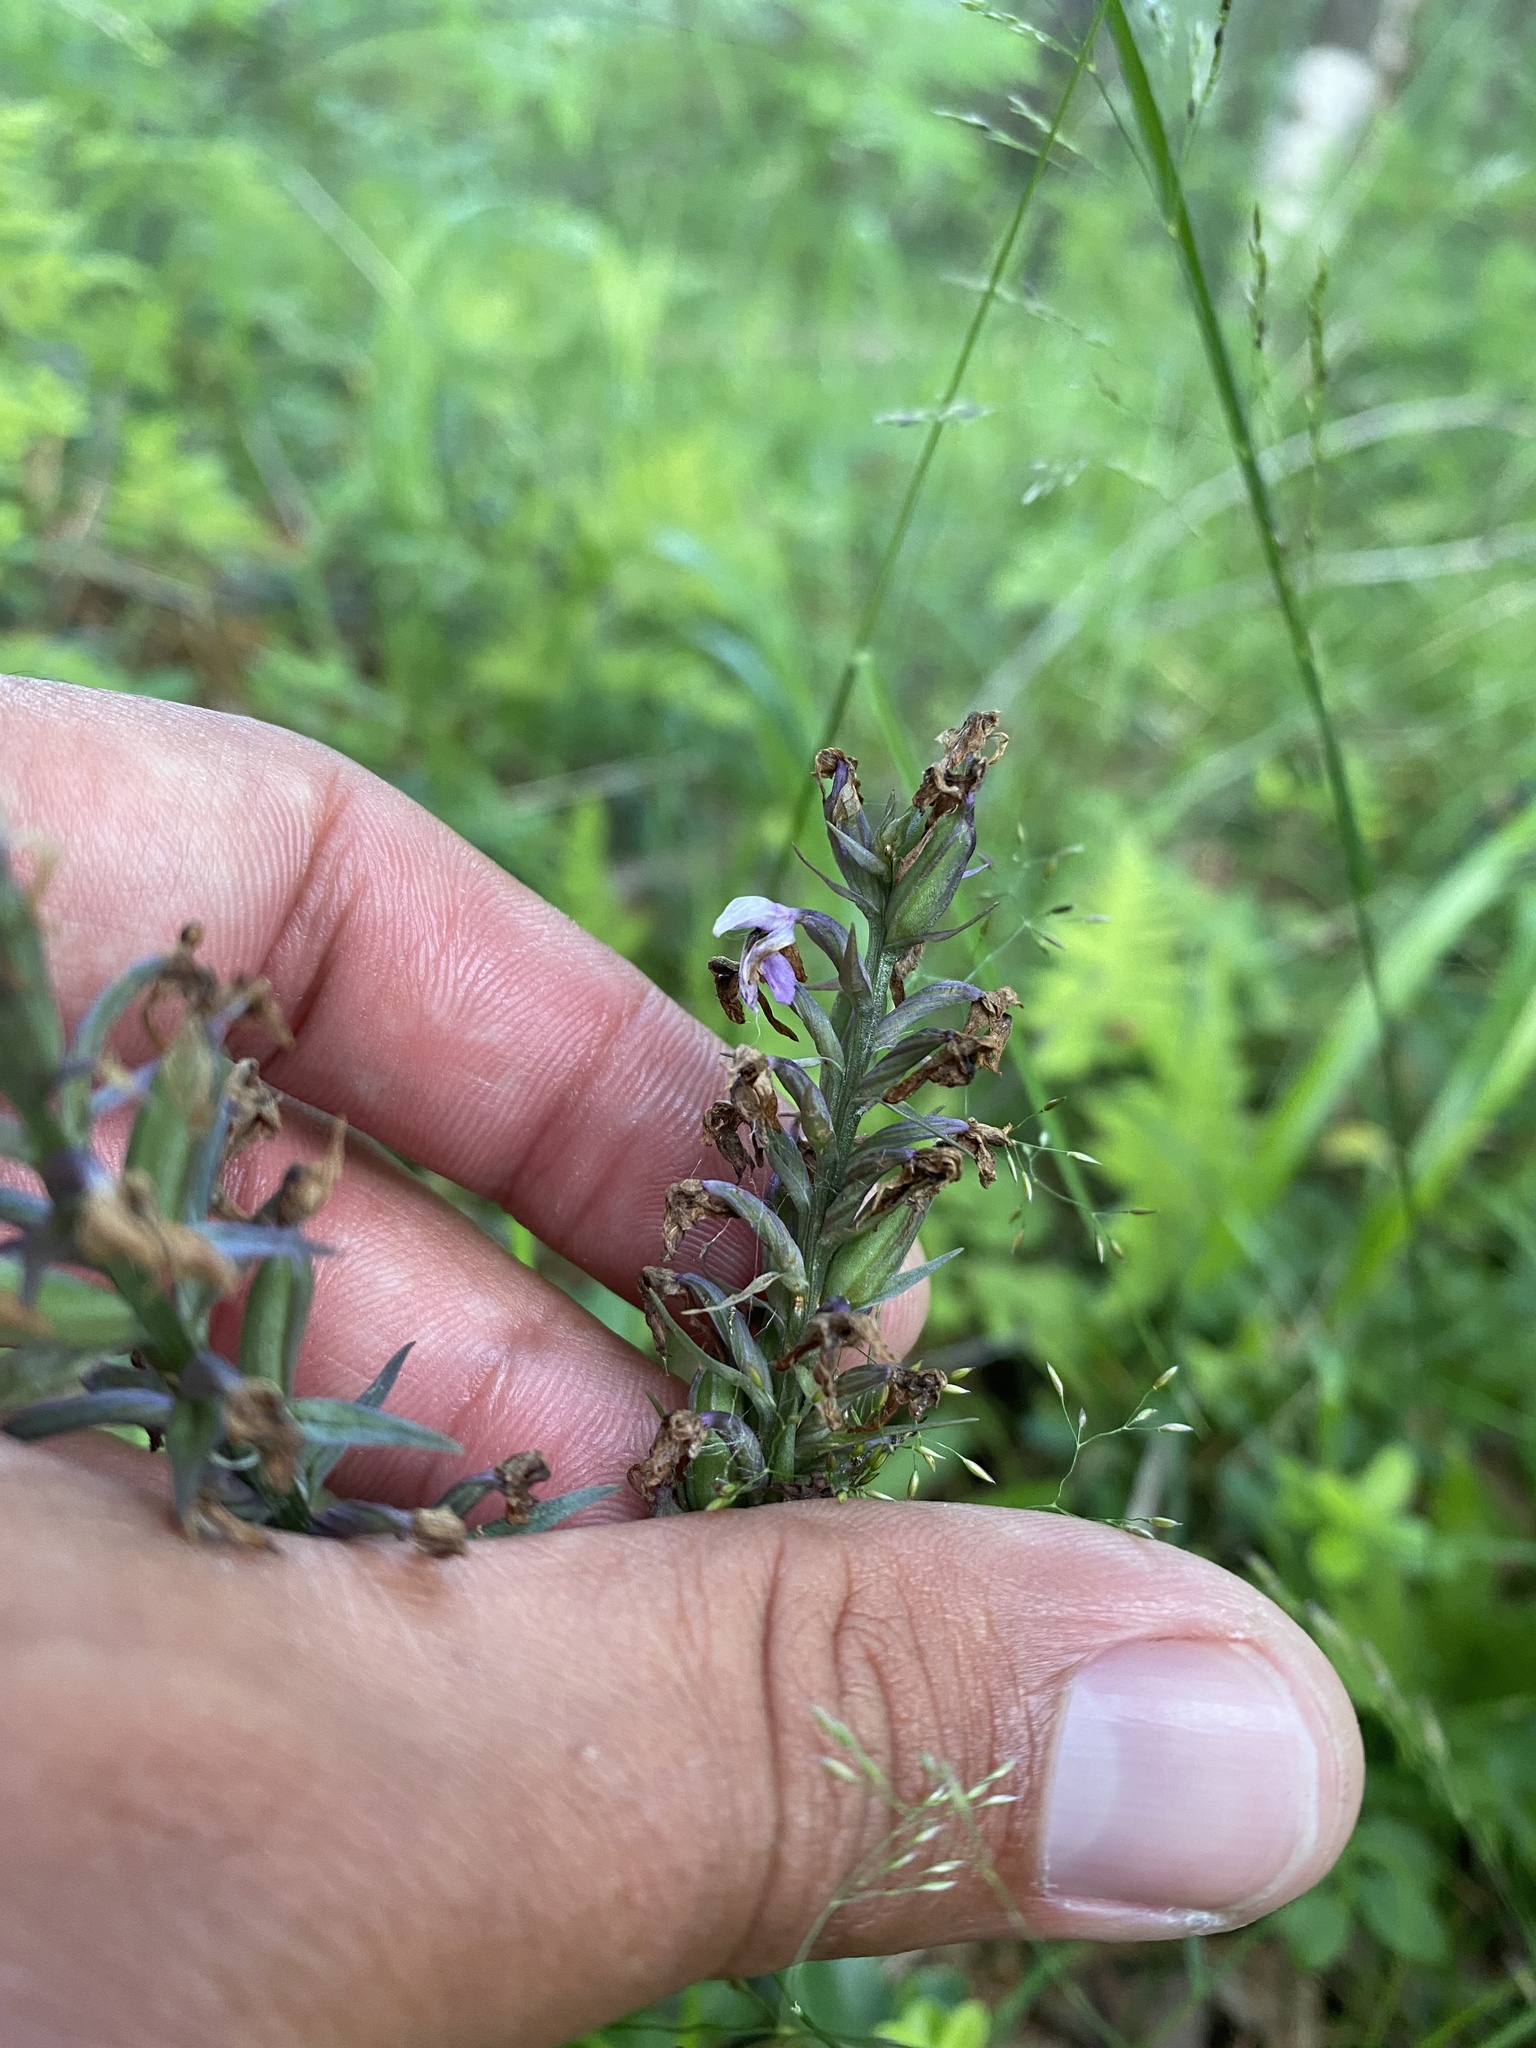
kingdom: Plantae
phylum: Tracheophyta
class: Liliopsida
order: Asparagales
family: Orchidaceae
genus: Dactylorhiza
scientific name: Dactylorhiza maculata
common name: Heath spotted-orchid
